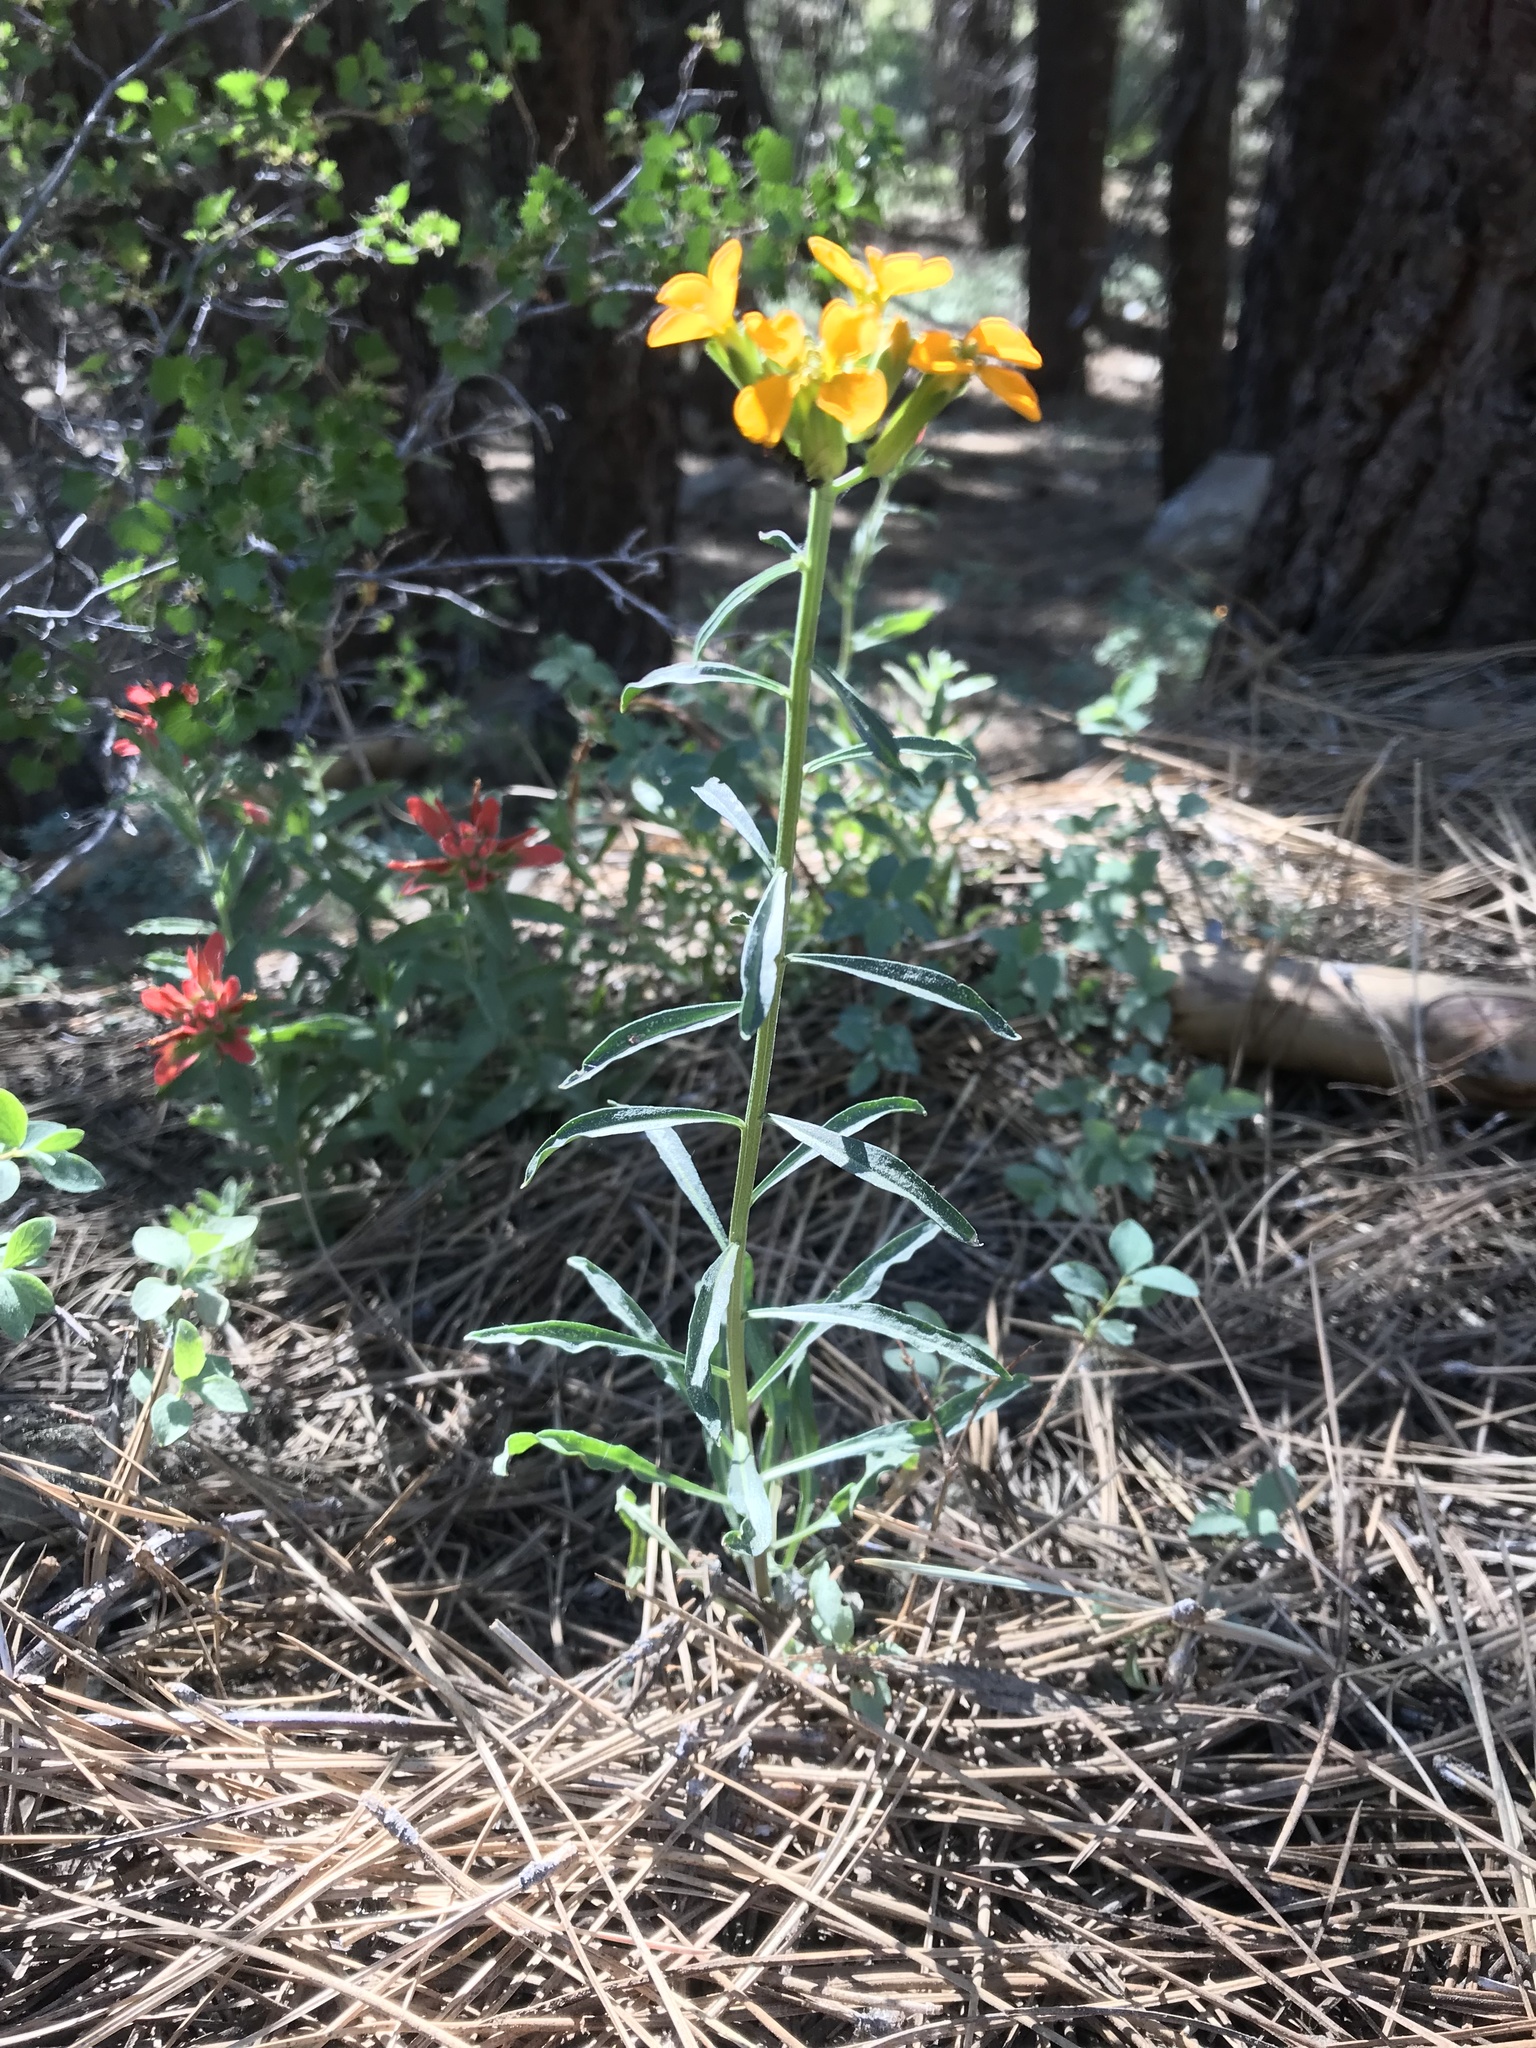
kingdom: Plantae
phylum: Tracheophyta
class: Magnoliopsida
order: Brassicales
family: Brassicaceae
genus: Erysimum
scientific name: Erysimum capitatum
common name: Western wallflower
